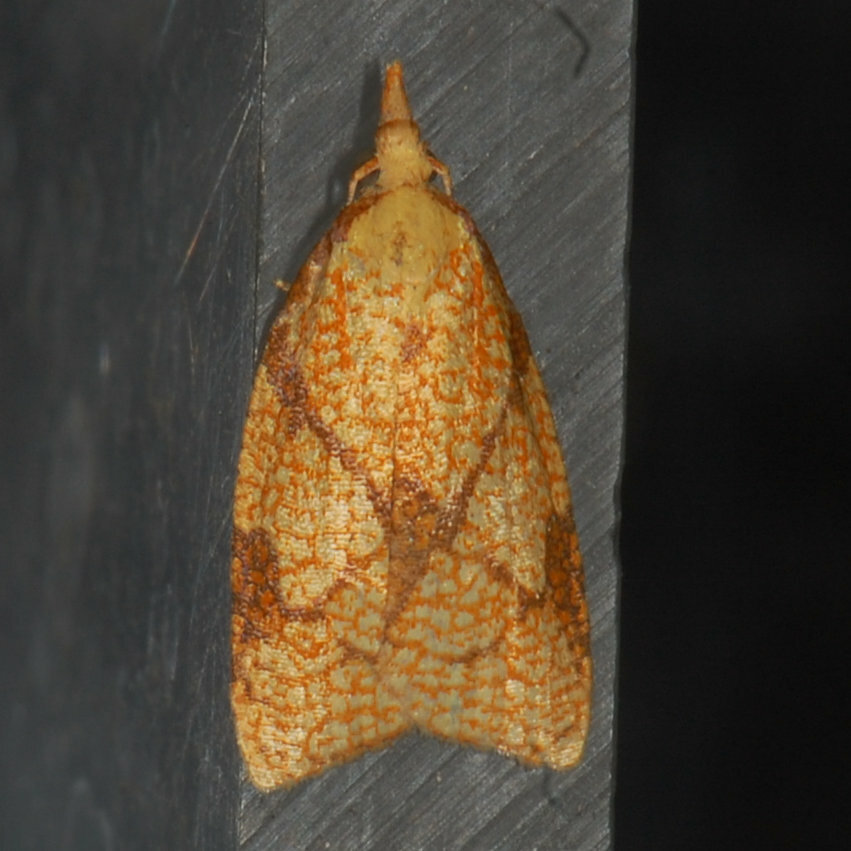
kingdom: Animalia
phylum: Arthropoda
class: Insecta
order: Lepidoptera
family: Tortricidae
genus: Cenopis
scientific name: Cenopis reticulatana
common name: Reticulated fruitworm moth
